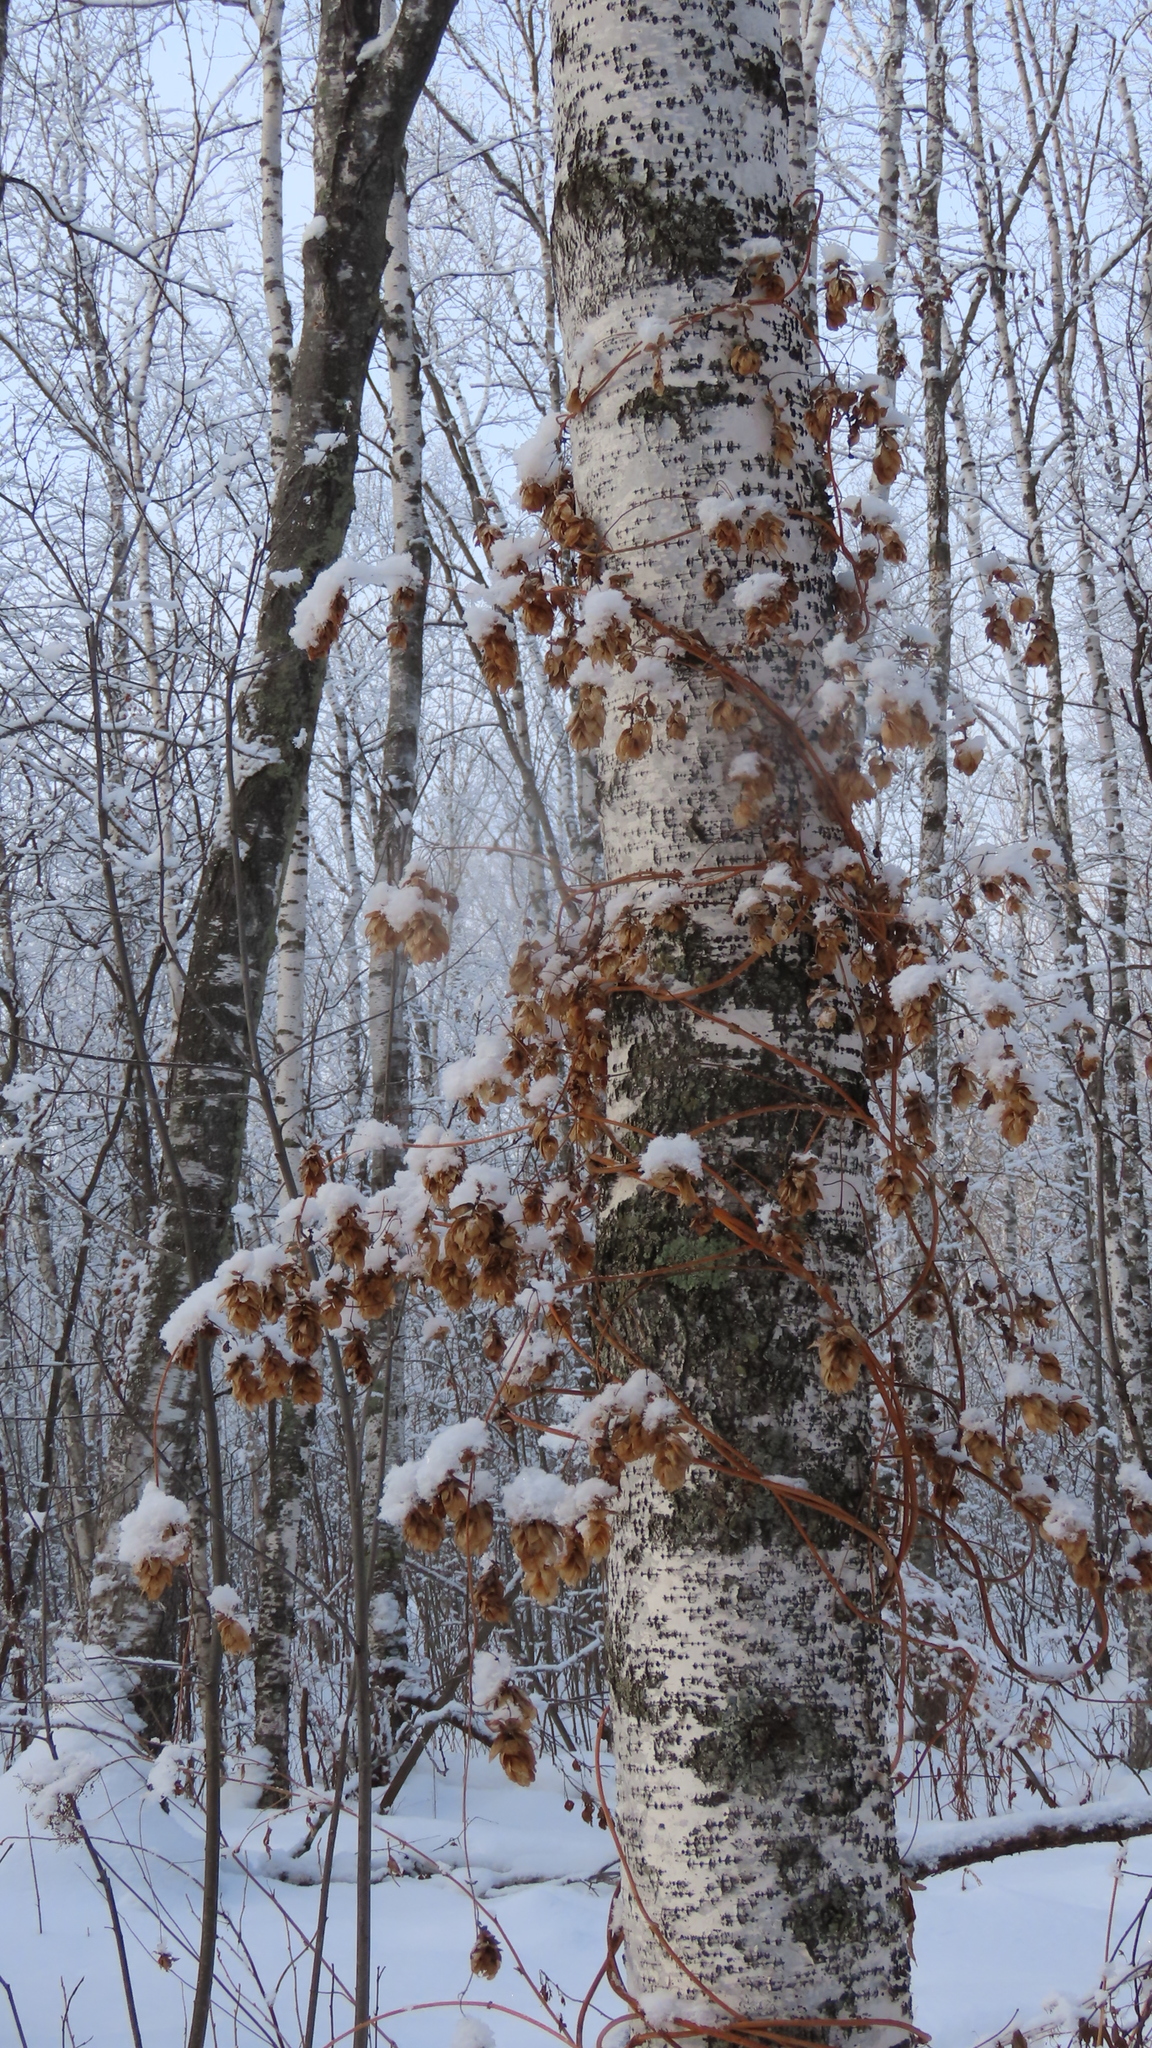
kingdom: Plantae
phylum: Tracheophyta
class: Magnoliopsida
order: Rosales
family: Cannabaceae
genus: Humulus
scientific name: Humulus lupulus
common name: Hop
